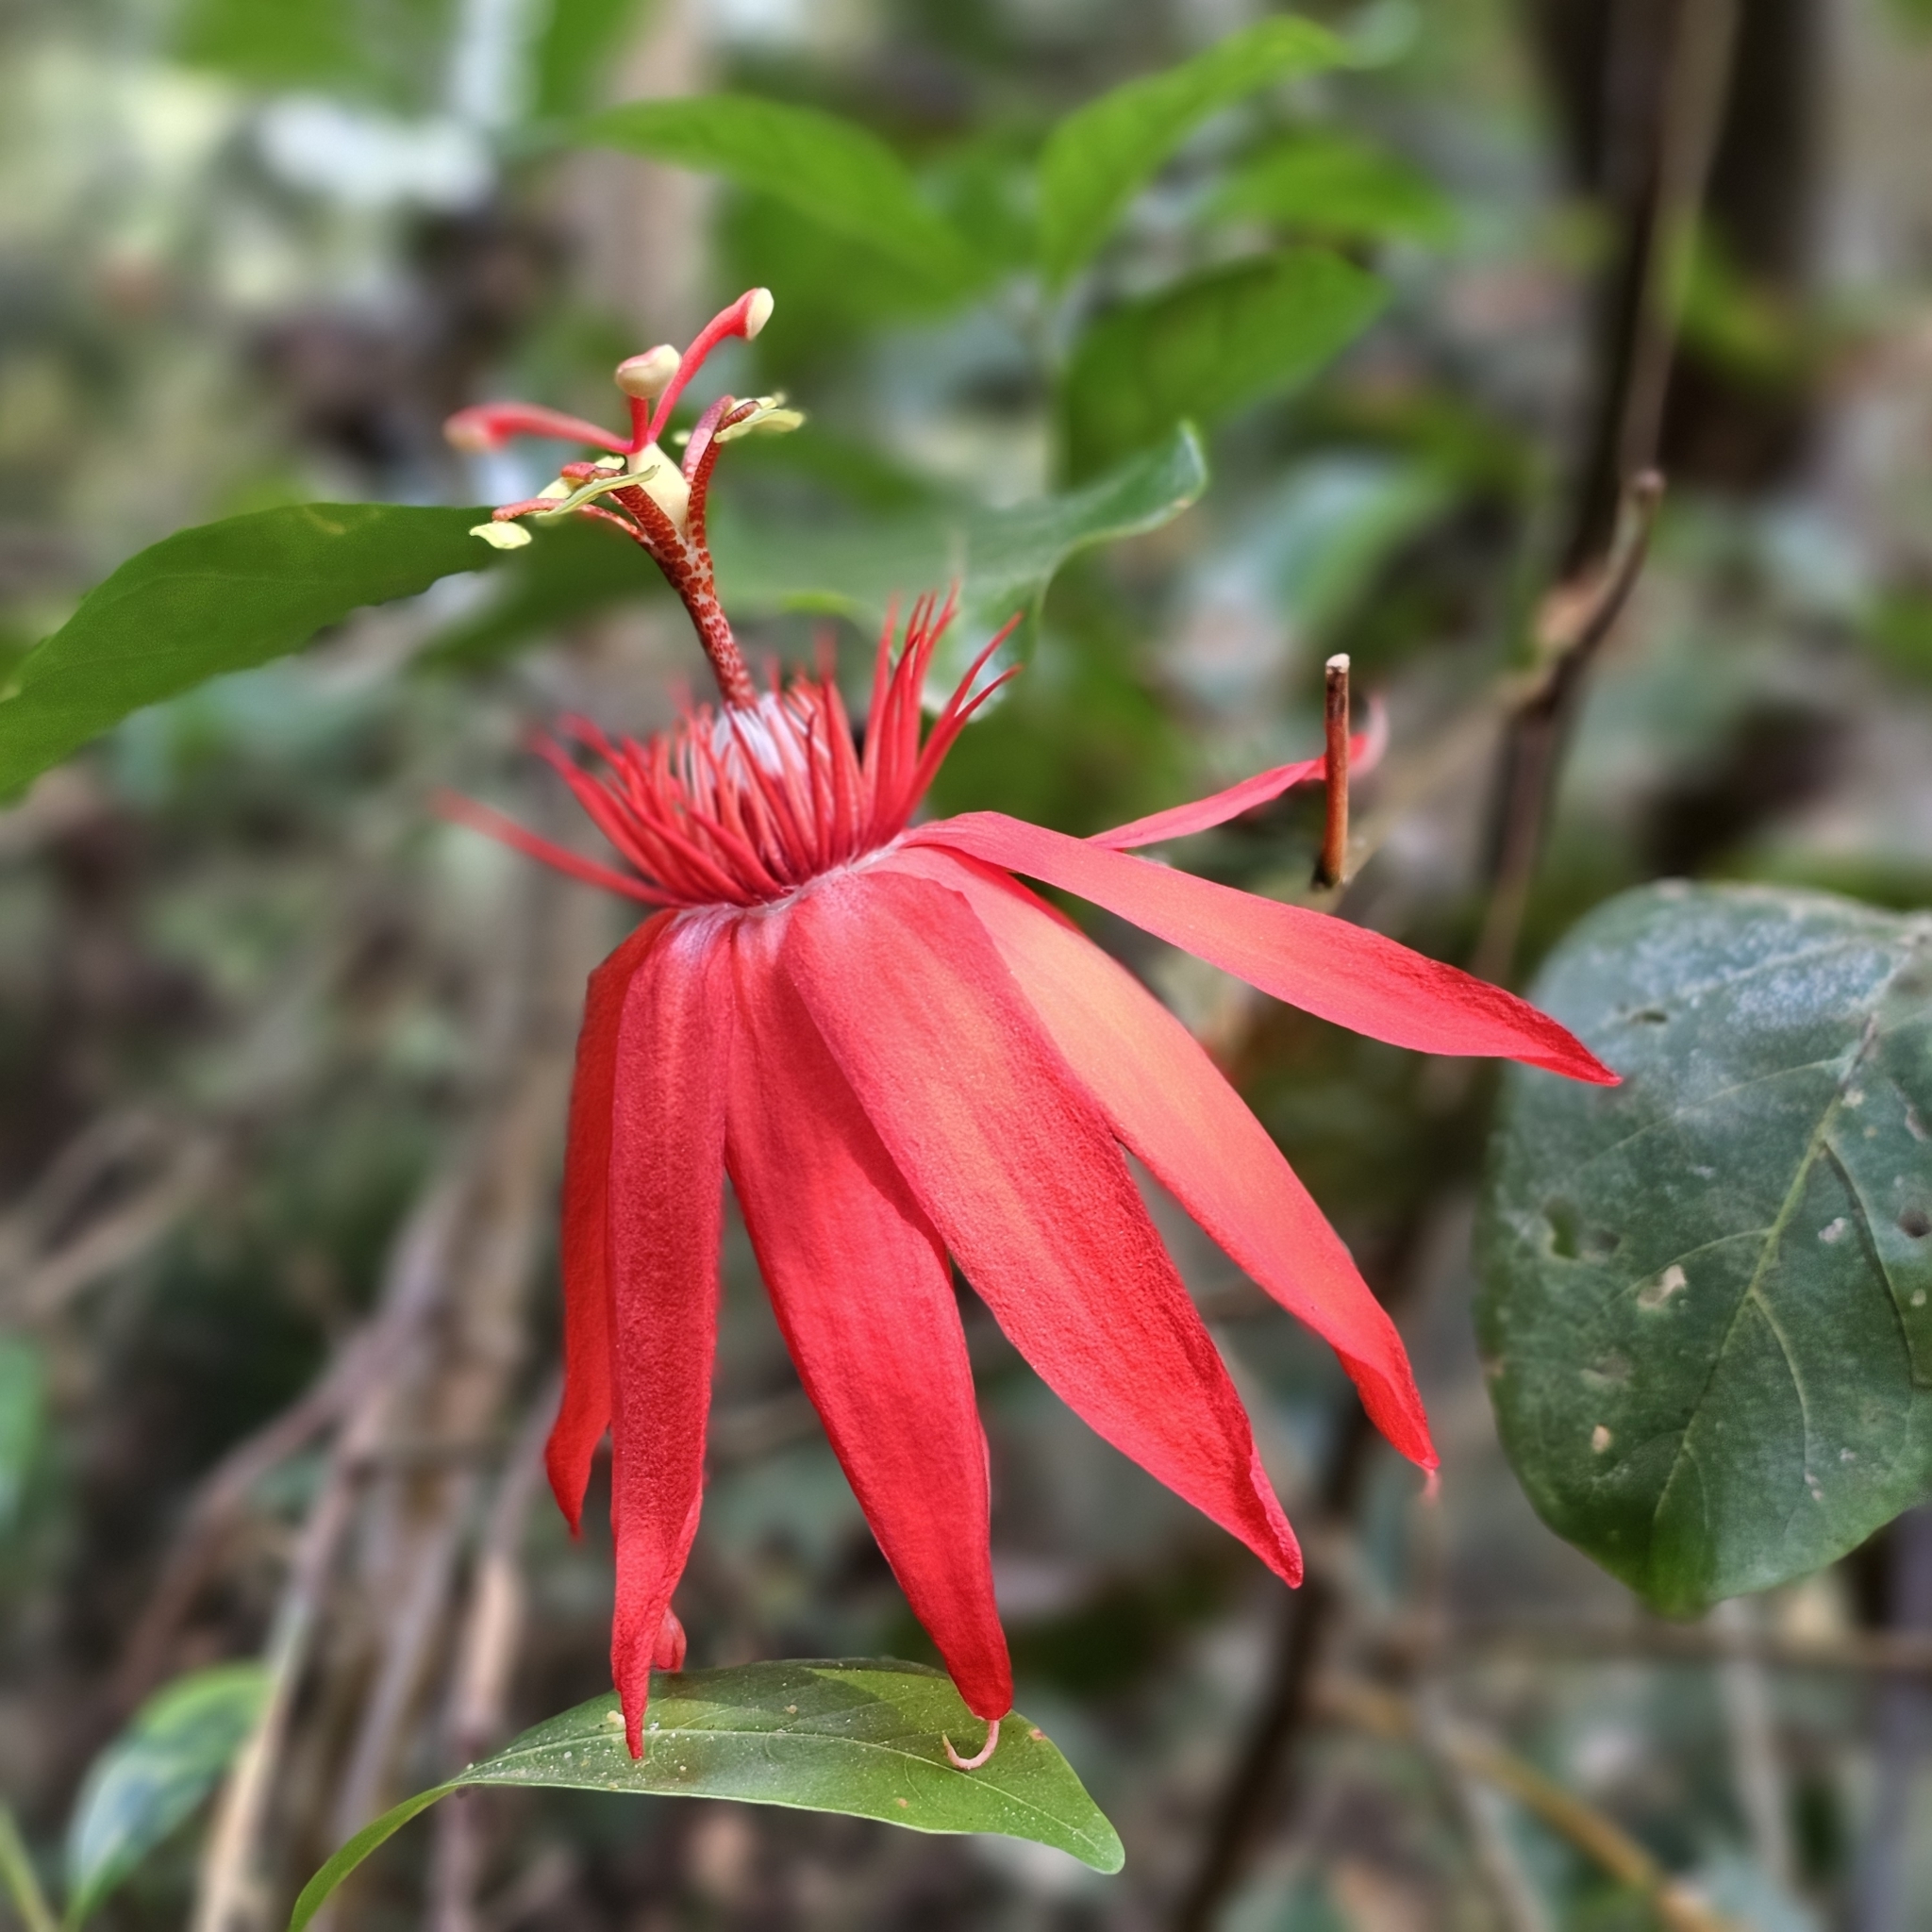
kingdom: Plantae
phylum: Tracheophyta
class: Magnoliopsida
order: Malpighiales
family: Passifloraceae
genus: Passiflora
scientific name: Passiflora vitifolia
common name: Perfumed passionflower
